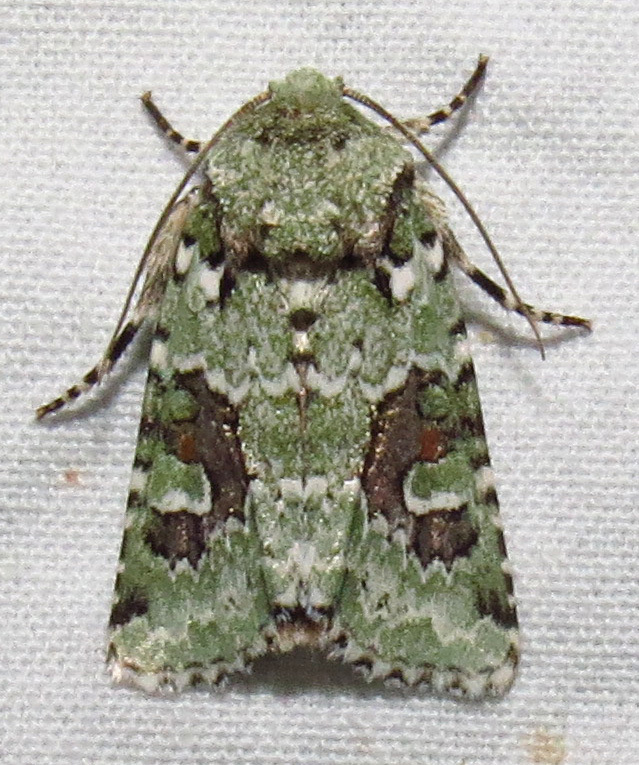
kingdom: Animalia
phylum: Arthropoda
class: Insecta
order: Lepidoptera
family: Noctuidae
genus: Lacinipolia
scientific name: Lacinipolia laudabilis
